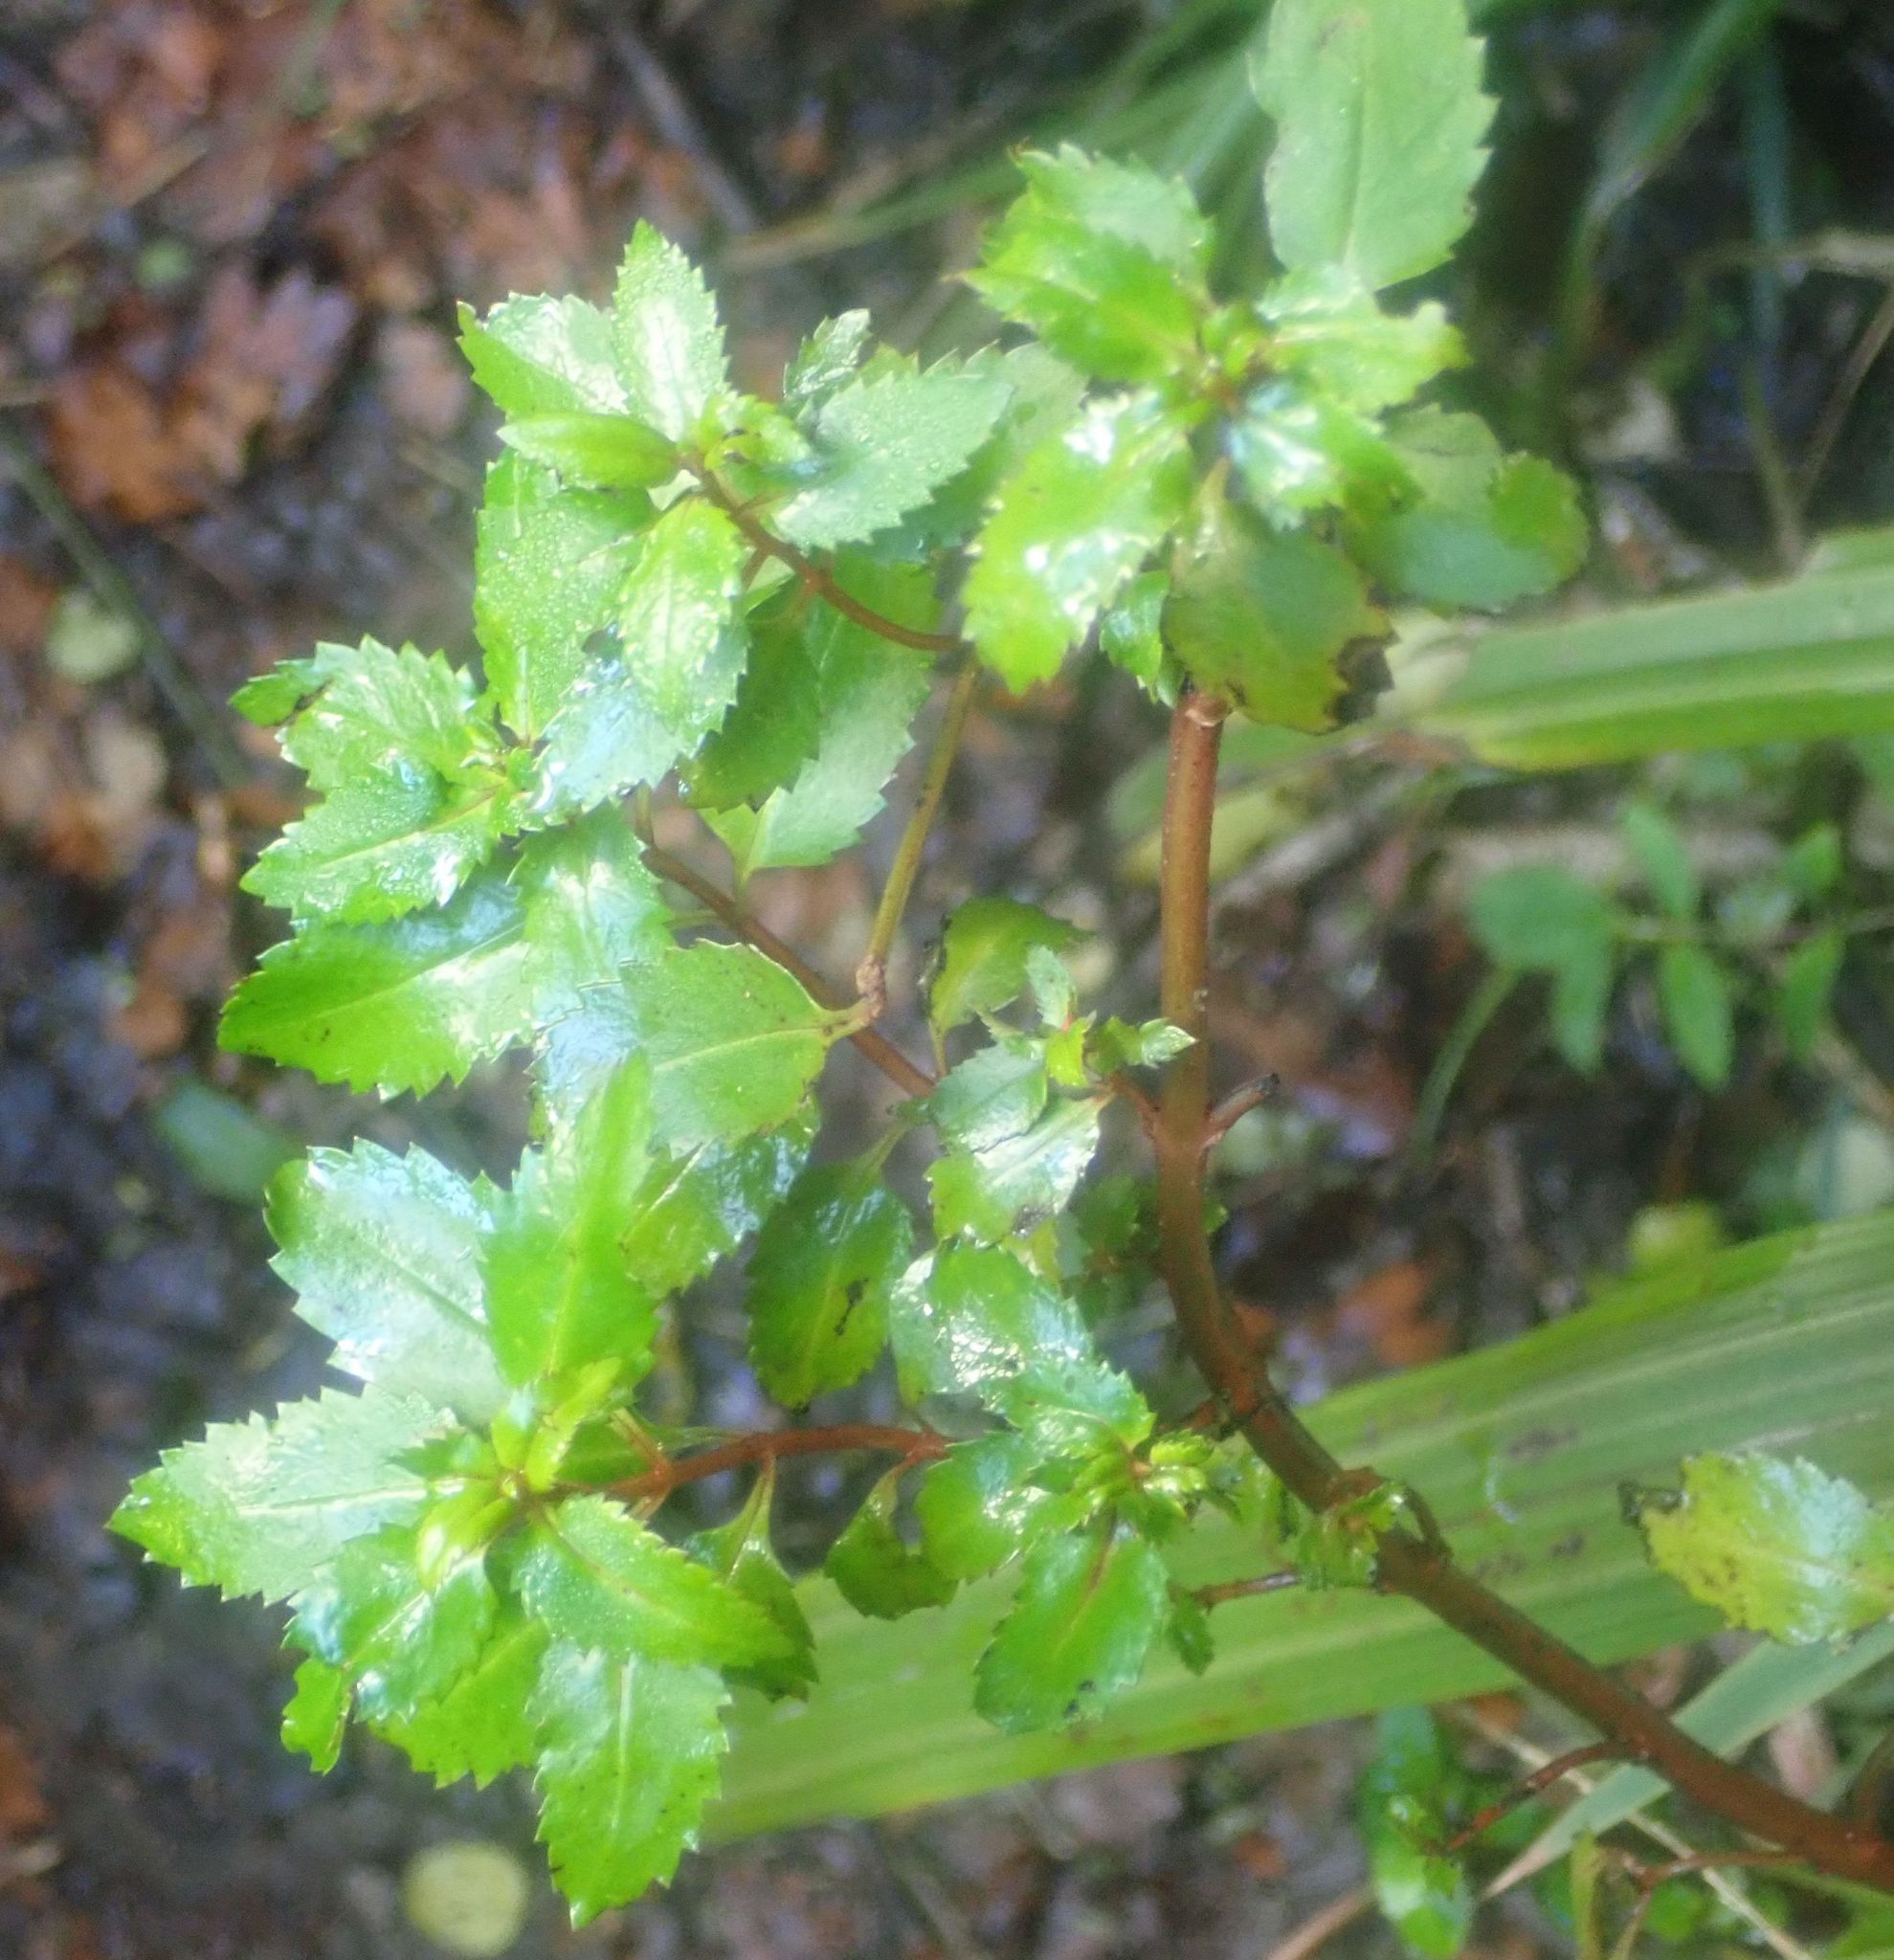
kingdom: Plantae
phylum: Tracheophyta
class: Magnoliopsida
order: Saxifragales
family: Haloragaceae
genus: Haloragis
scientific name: Haloragis erecta
